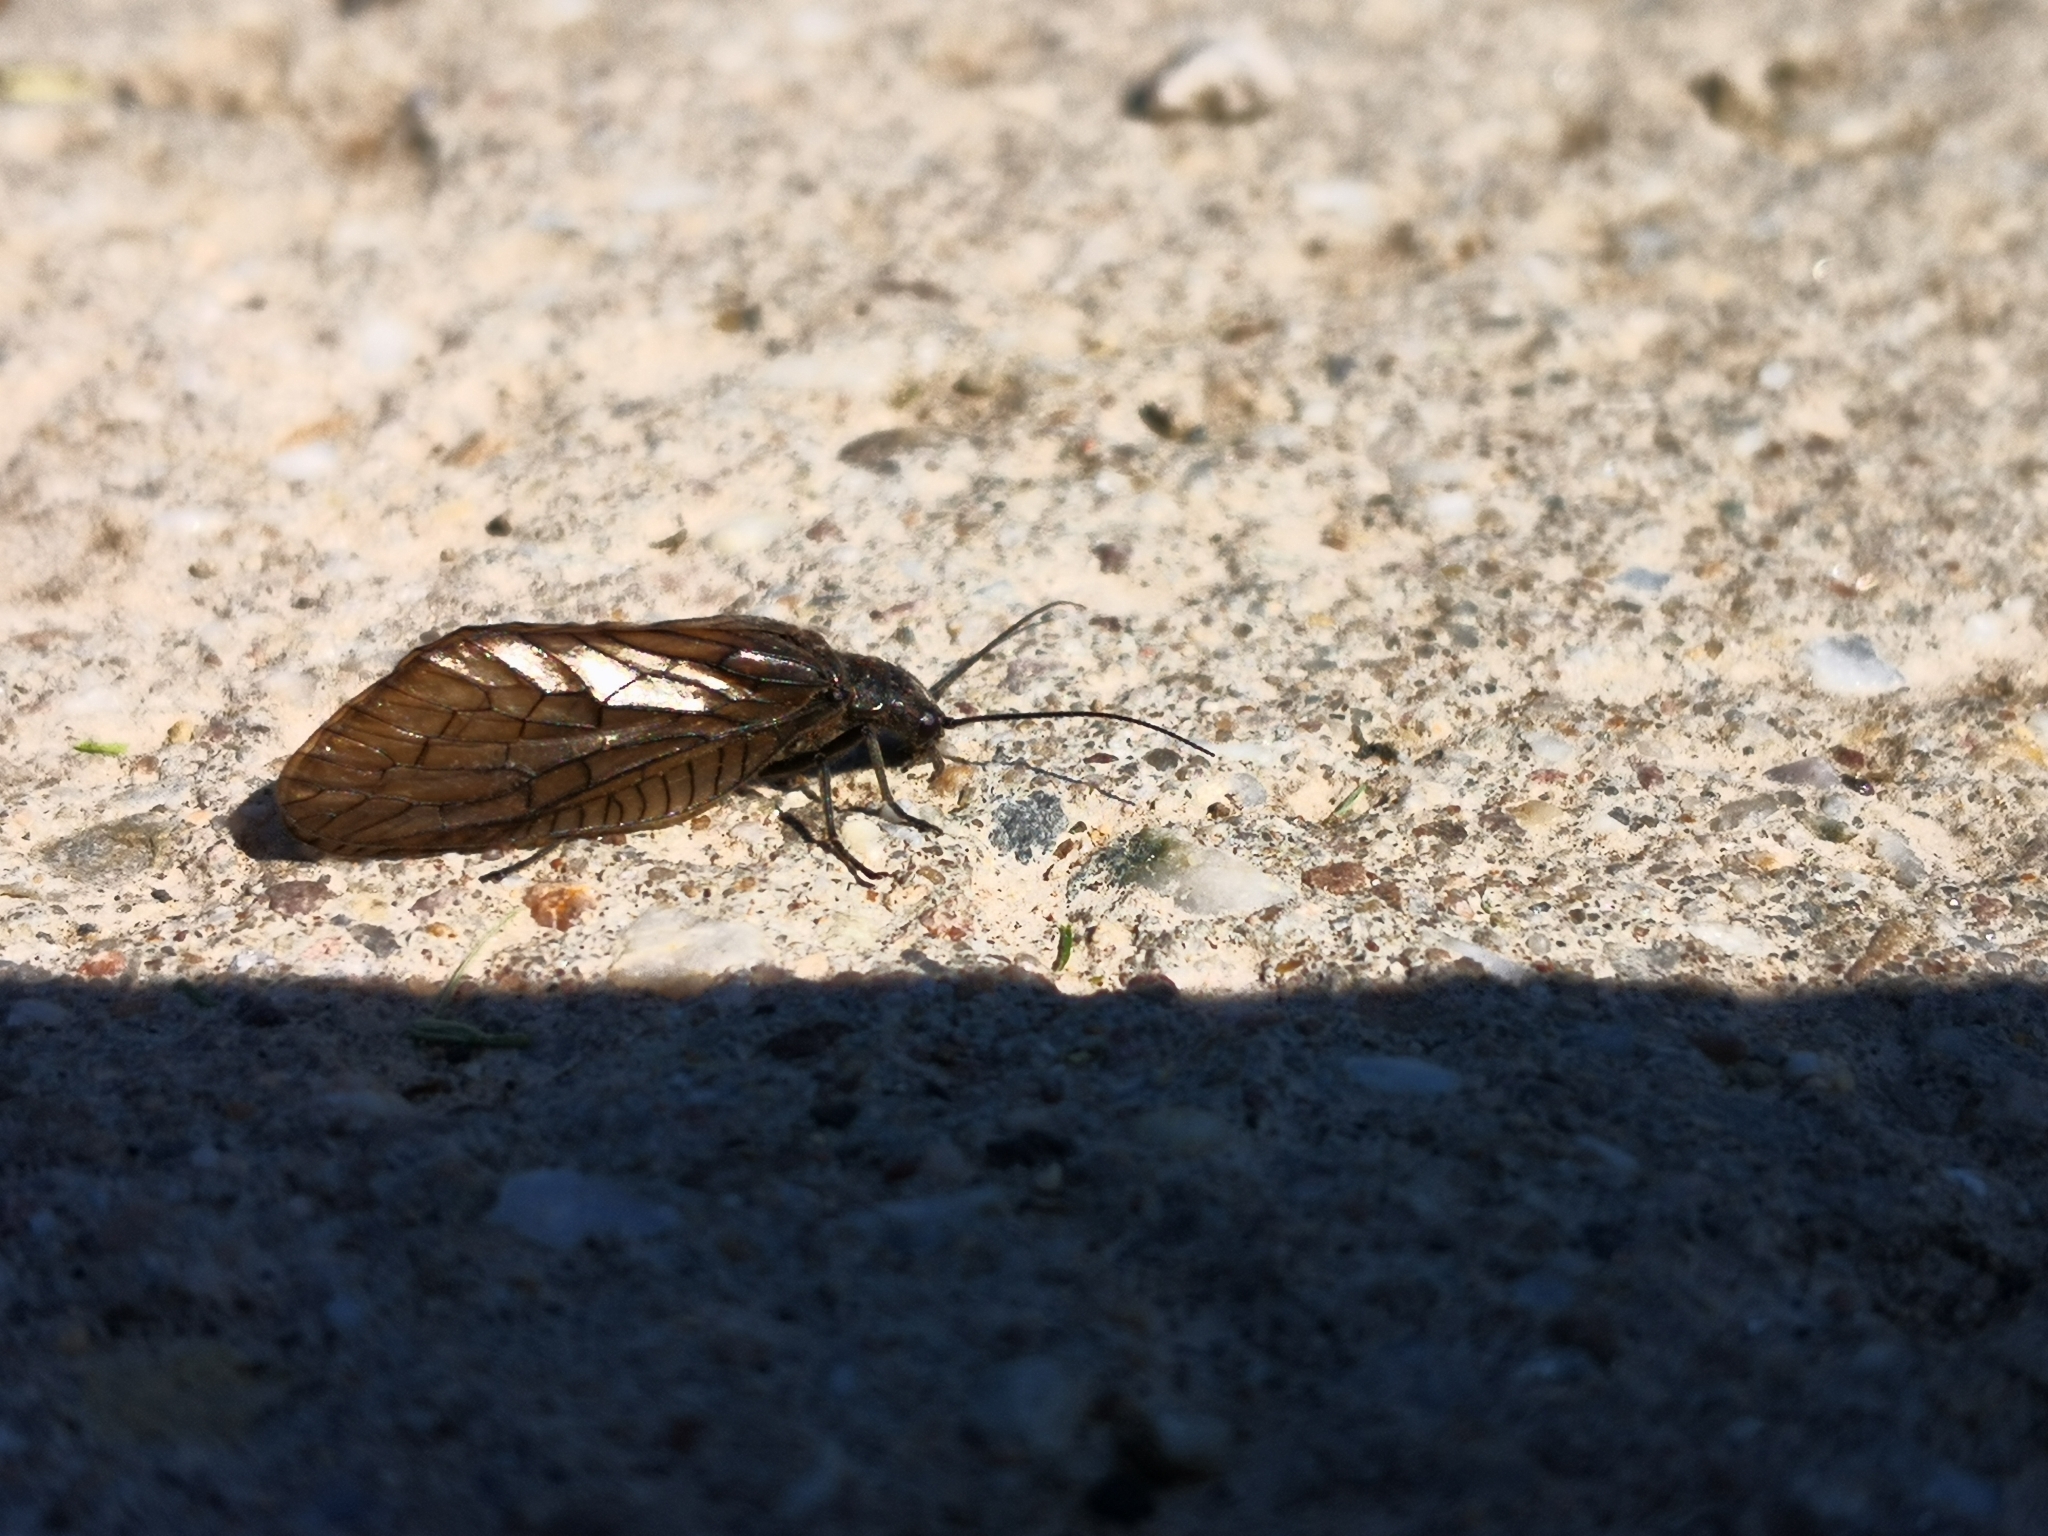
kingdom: Animalia
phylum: Arthropoda
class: Insecta
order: Megaloptera
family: Sialidae
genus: Sialis
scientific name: Sialis
